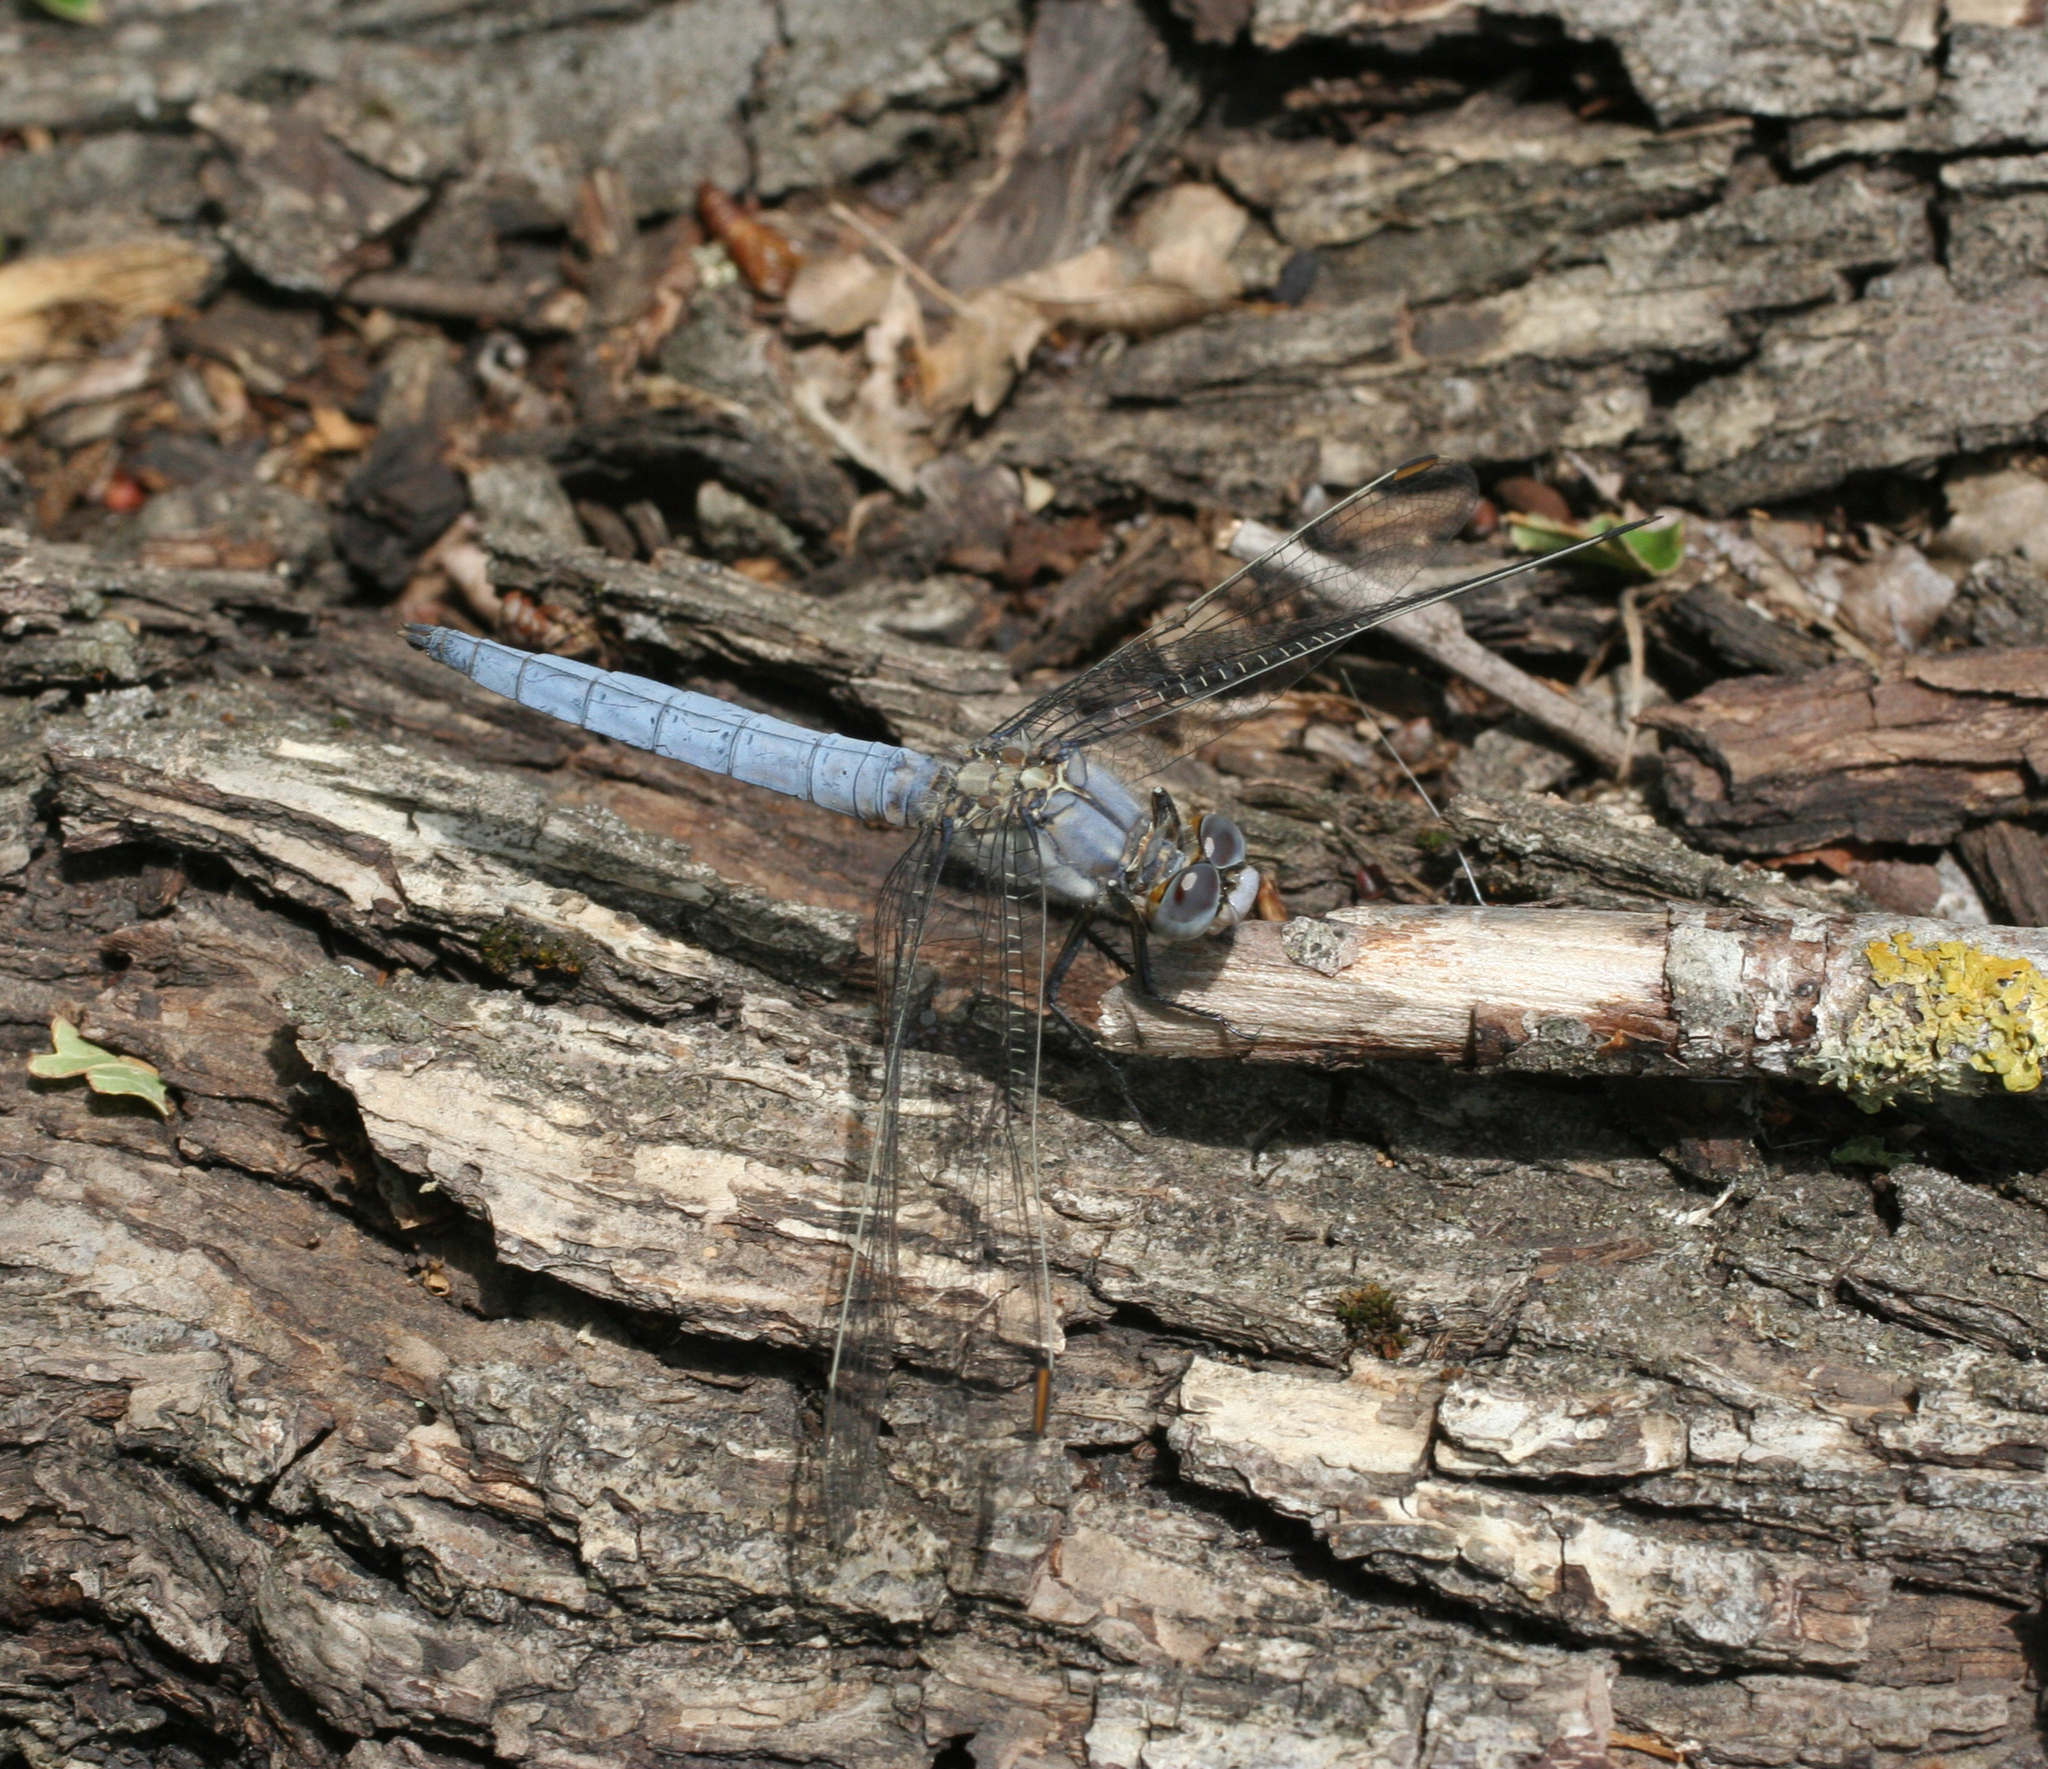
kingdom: Animalia
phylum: Arthropoda
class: Insecta
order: Odonata
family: Libellulidae
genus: Orthetrum
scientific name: Orthetrum brunneum
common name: Southern skimmer
